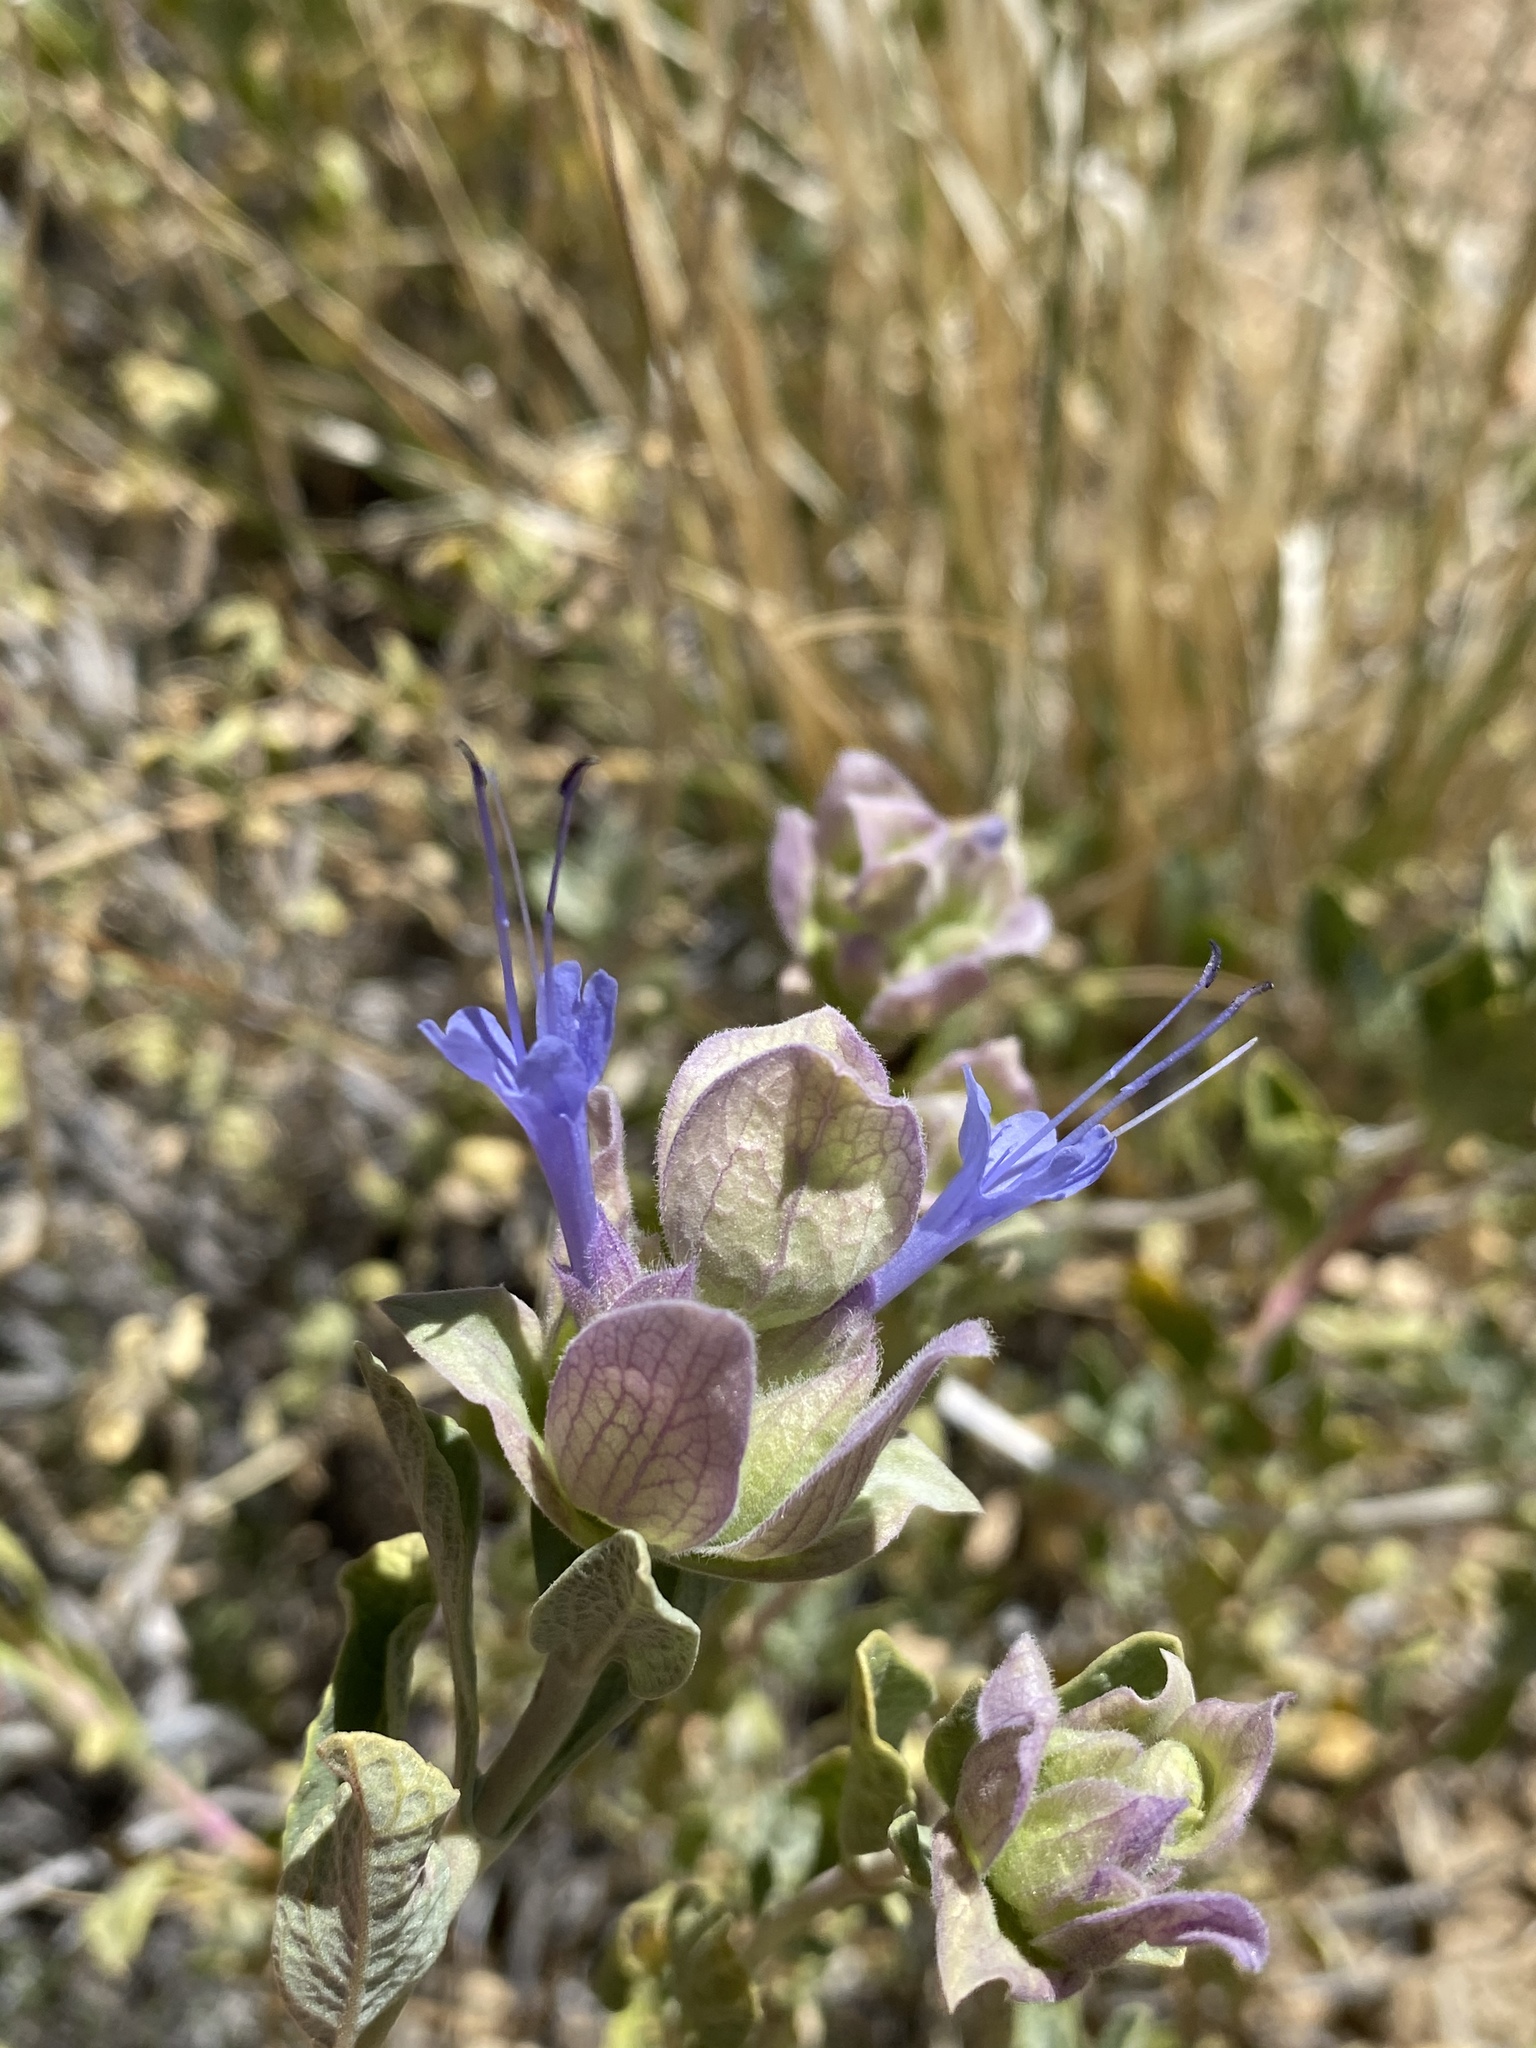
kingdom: Plantae
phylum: Tracheophyta
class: Magnoliopsida
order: Lamiales
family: Lamiaceae
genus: Salvia
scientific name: Salvia pachyphylla
